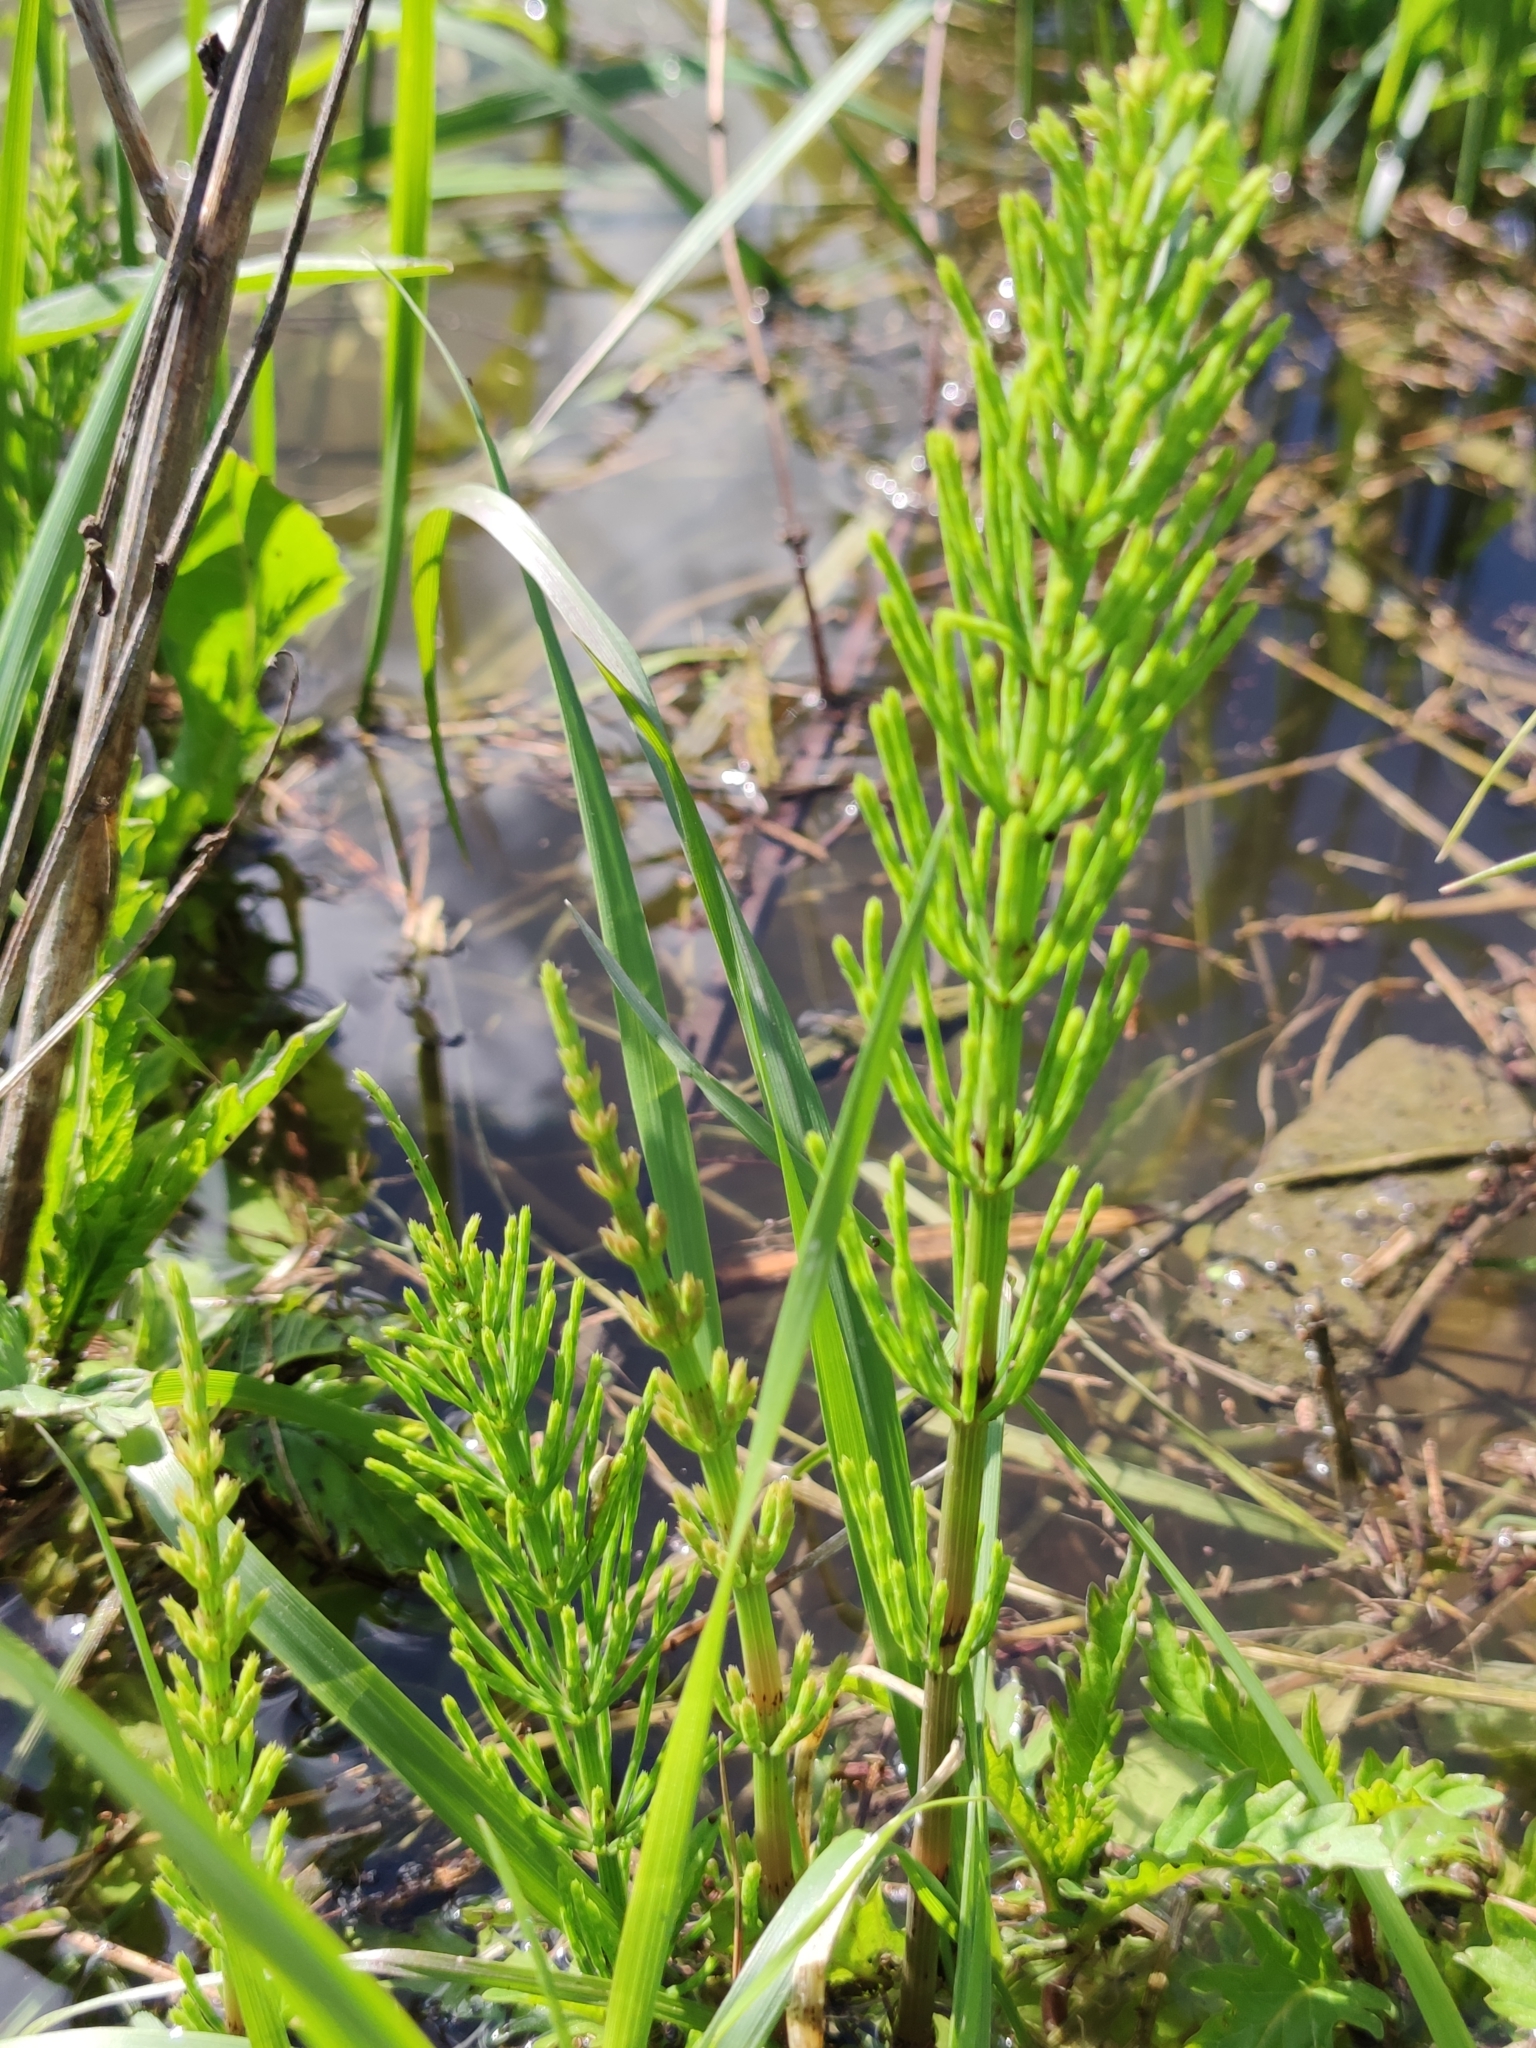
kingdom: Plantae
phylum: Tracheophyta
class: Polypodiopsida
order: Equisetales
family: Equisetaceae
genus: Equisetum
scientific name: Equisetum arvense
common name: Field horsetail
